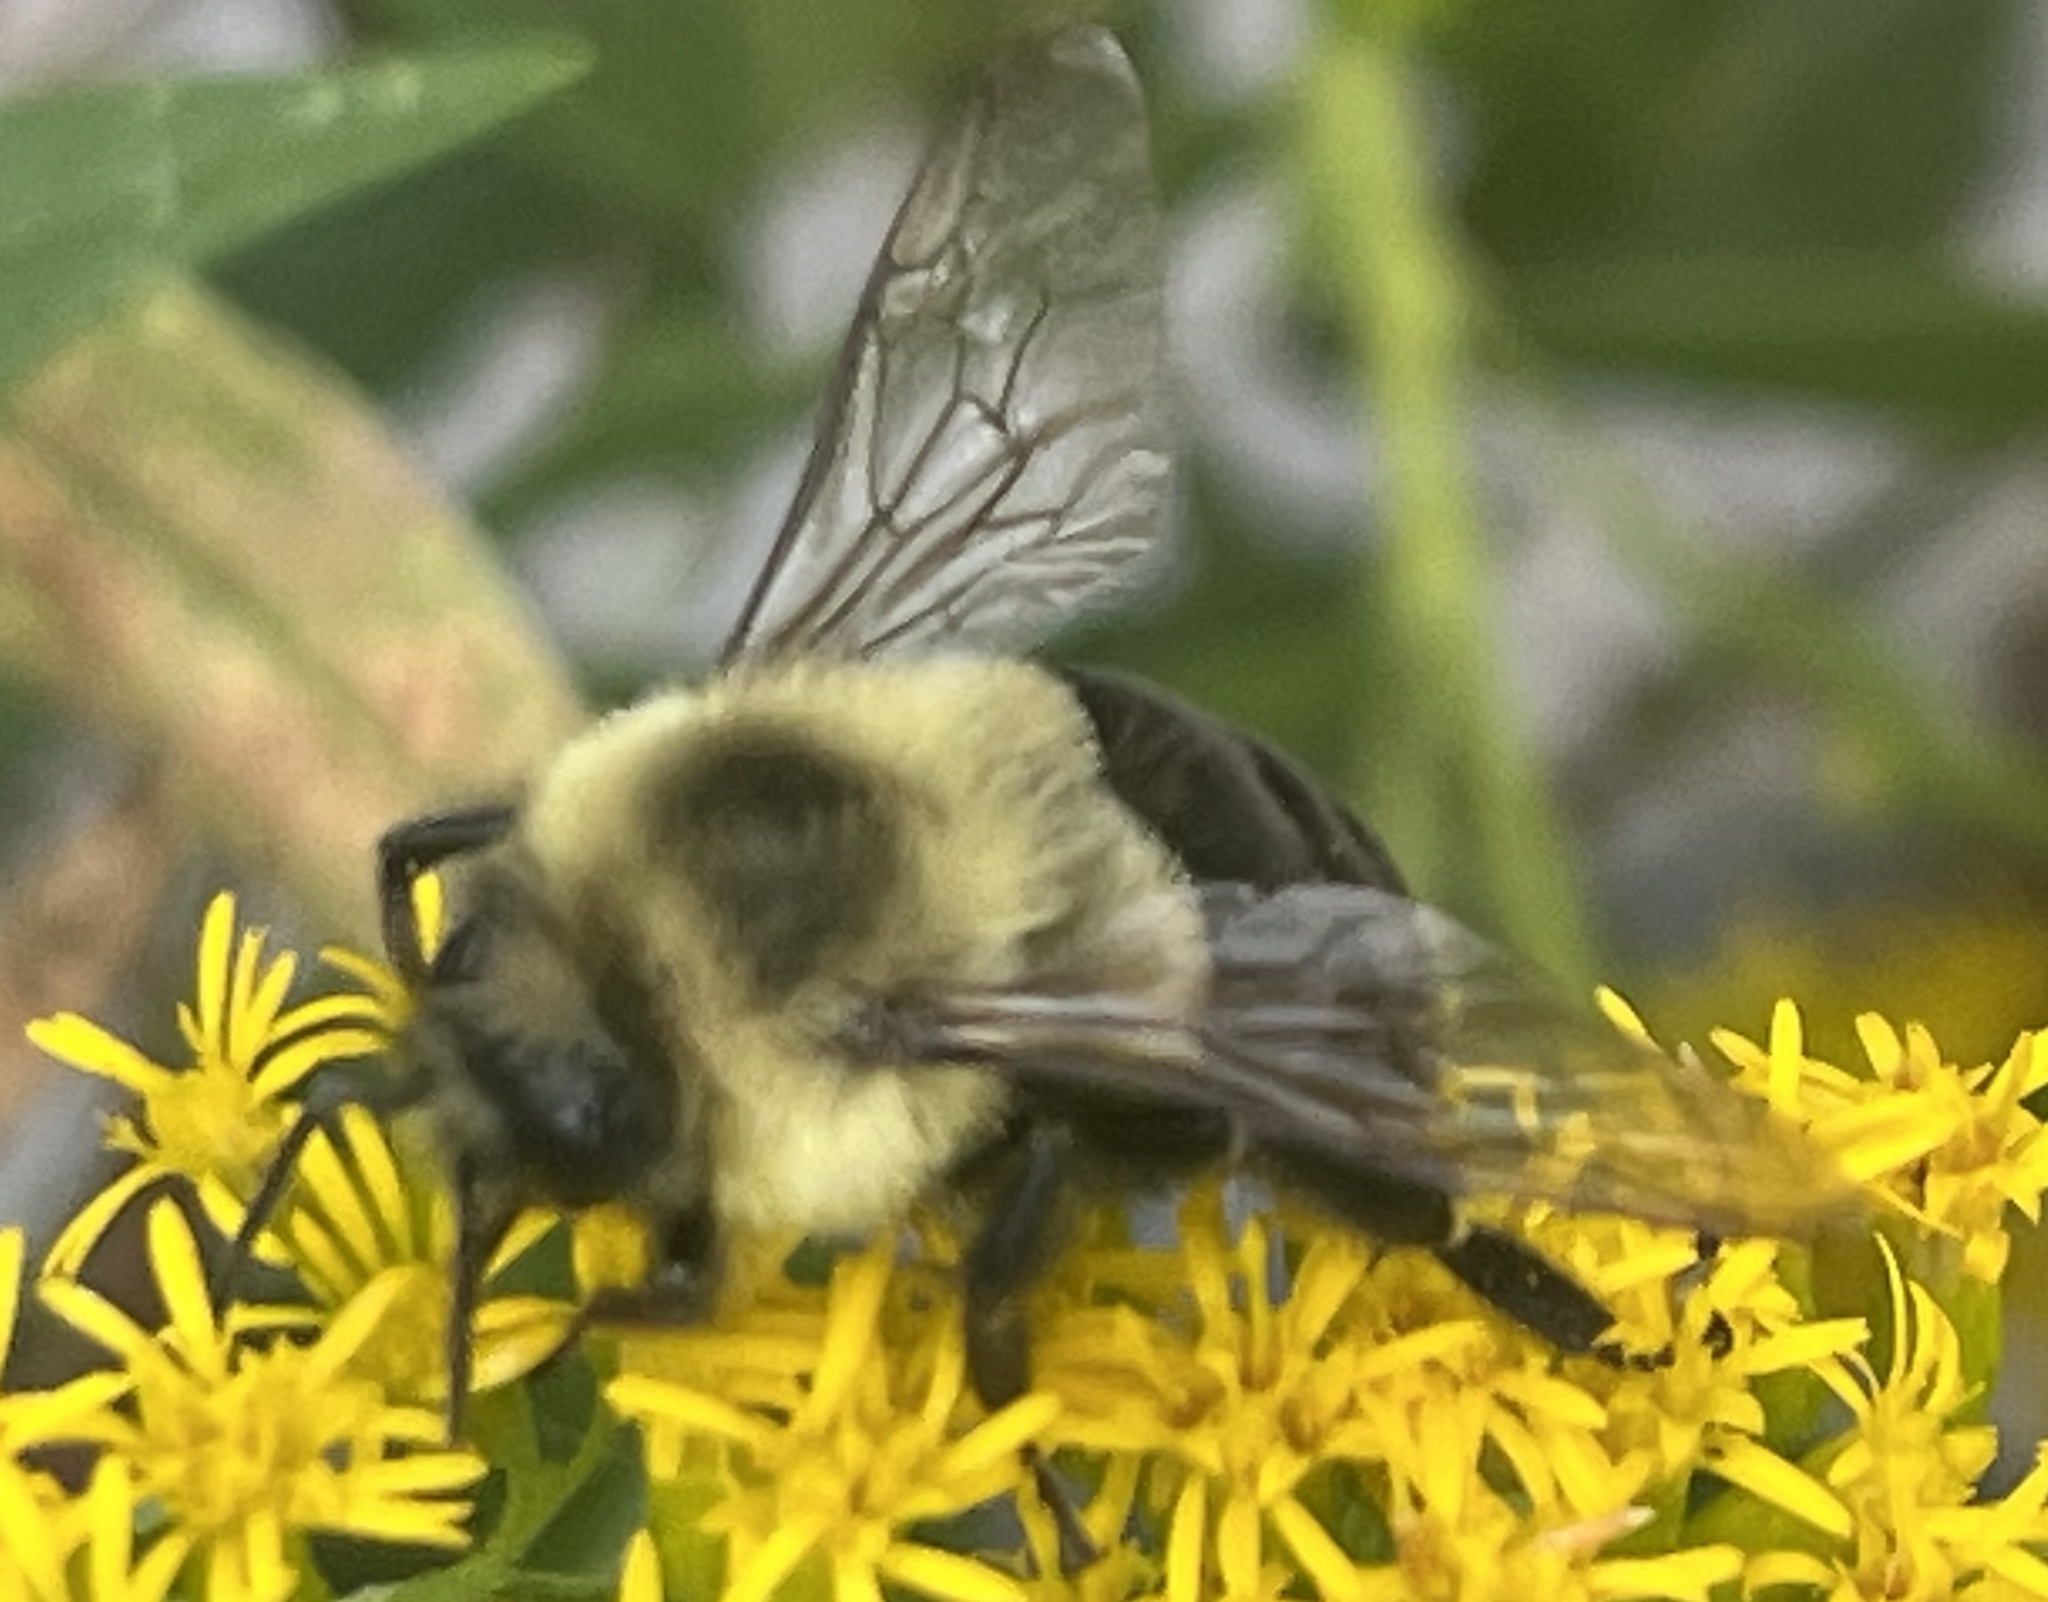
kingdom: Animalia
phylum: Arthropoda
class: Insecta
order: Hymenoptera
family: Apidae
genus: Bombus
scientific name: Bombus impatiens
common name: Common eastern bumble bee
